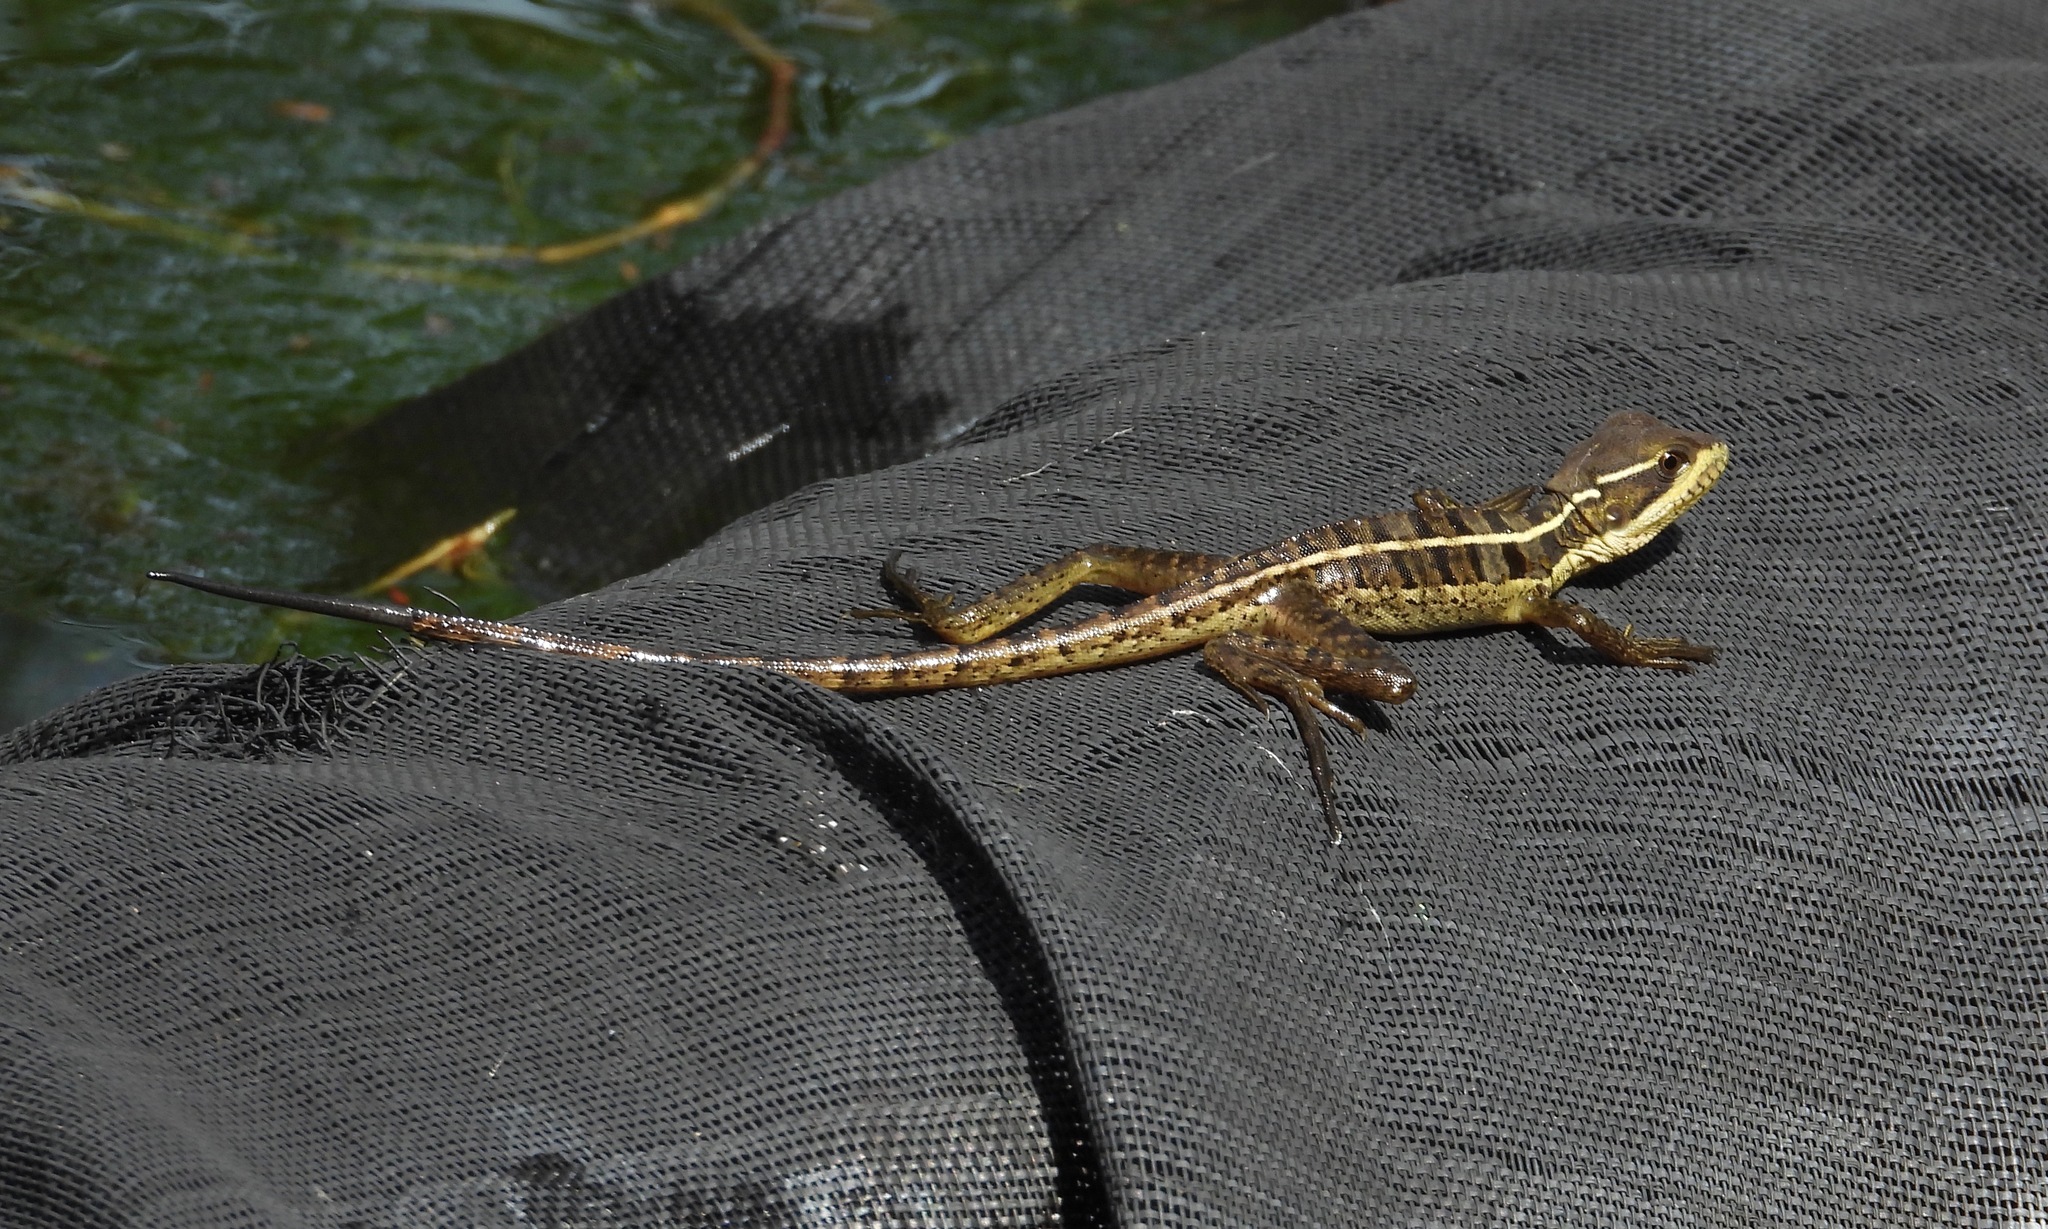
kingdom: Animalia
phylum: Chordata
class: Squamata
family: Corytophanidae
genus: Basiliscus
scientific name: Basiliscus vittatus
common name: Brown basilisk
